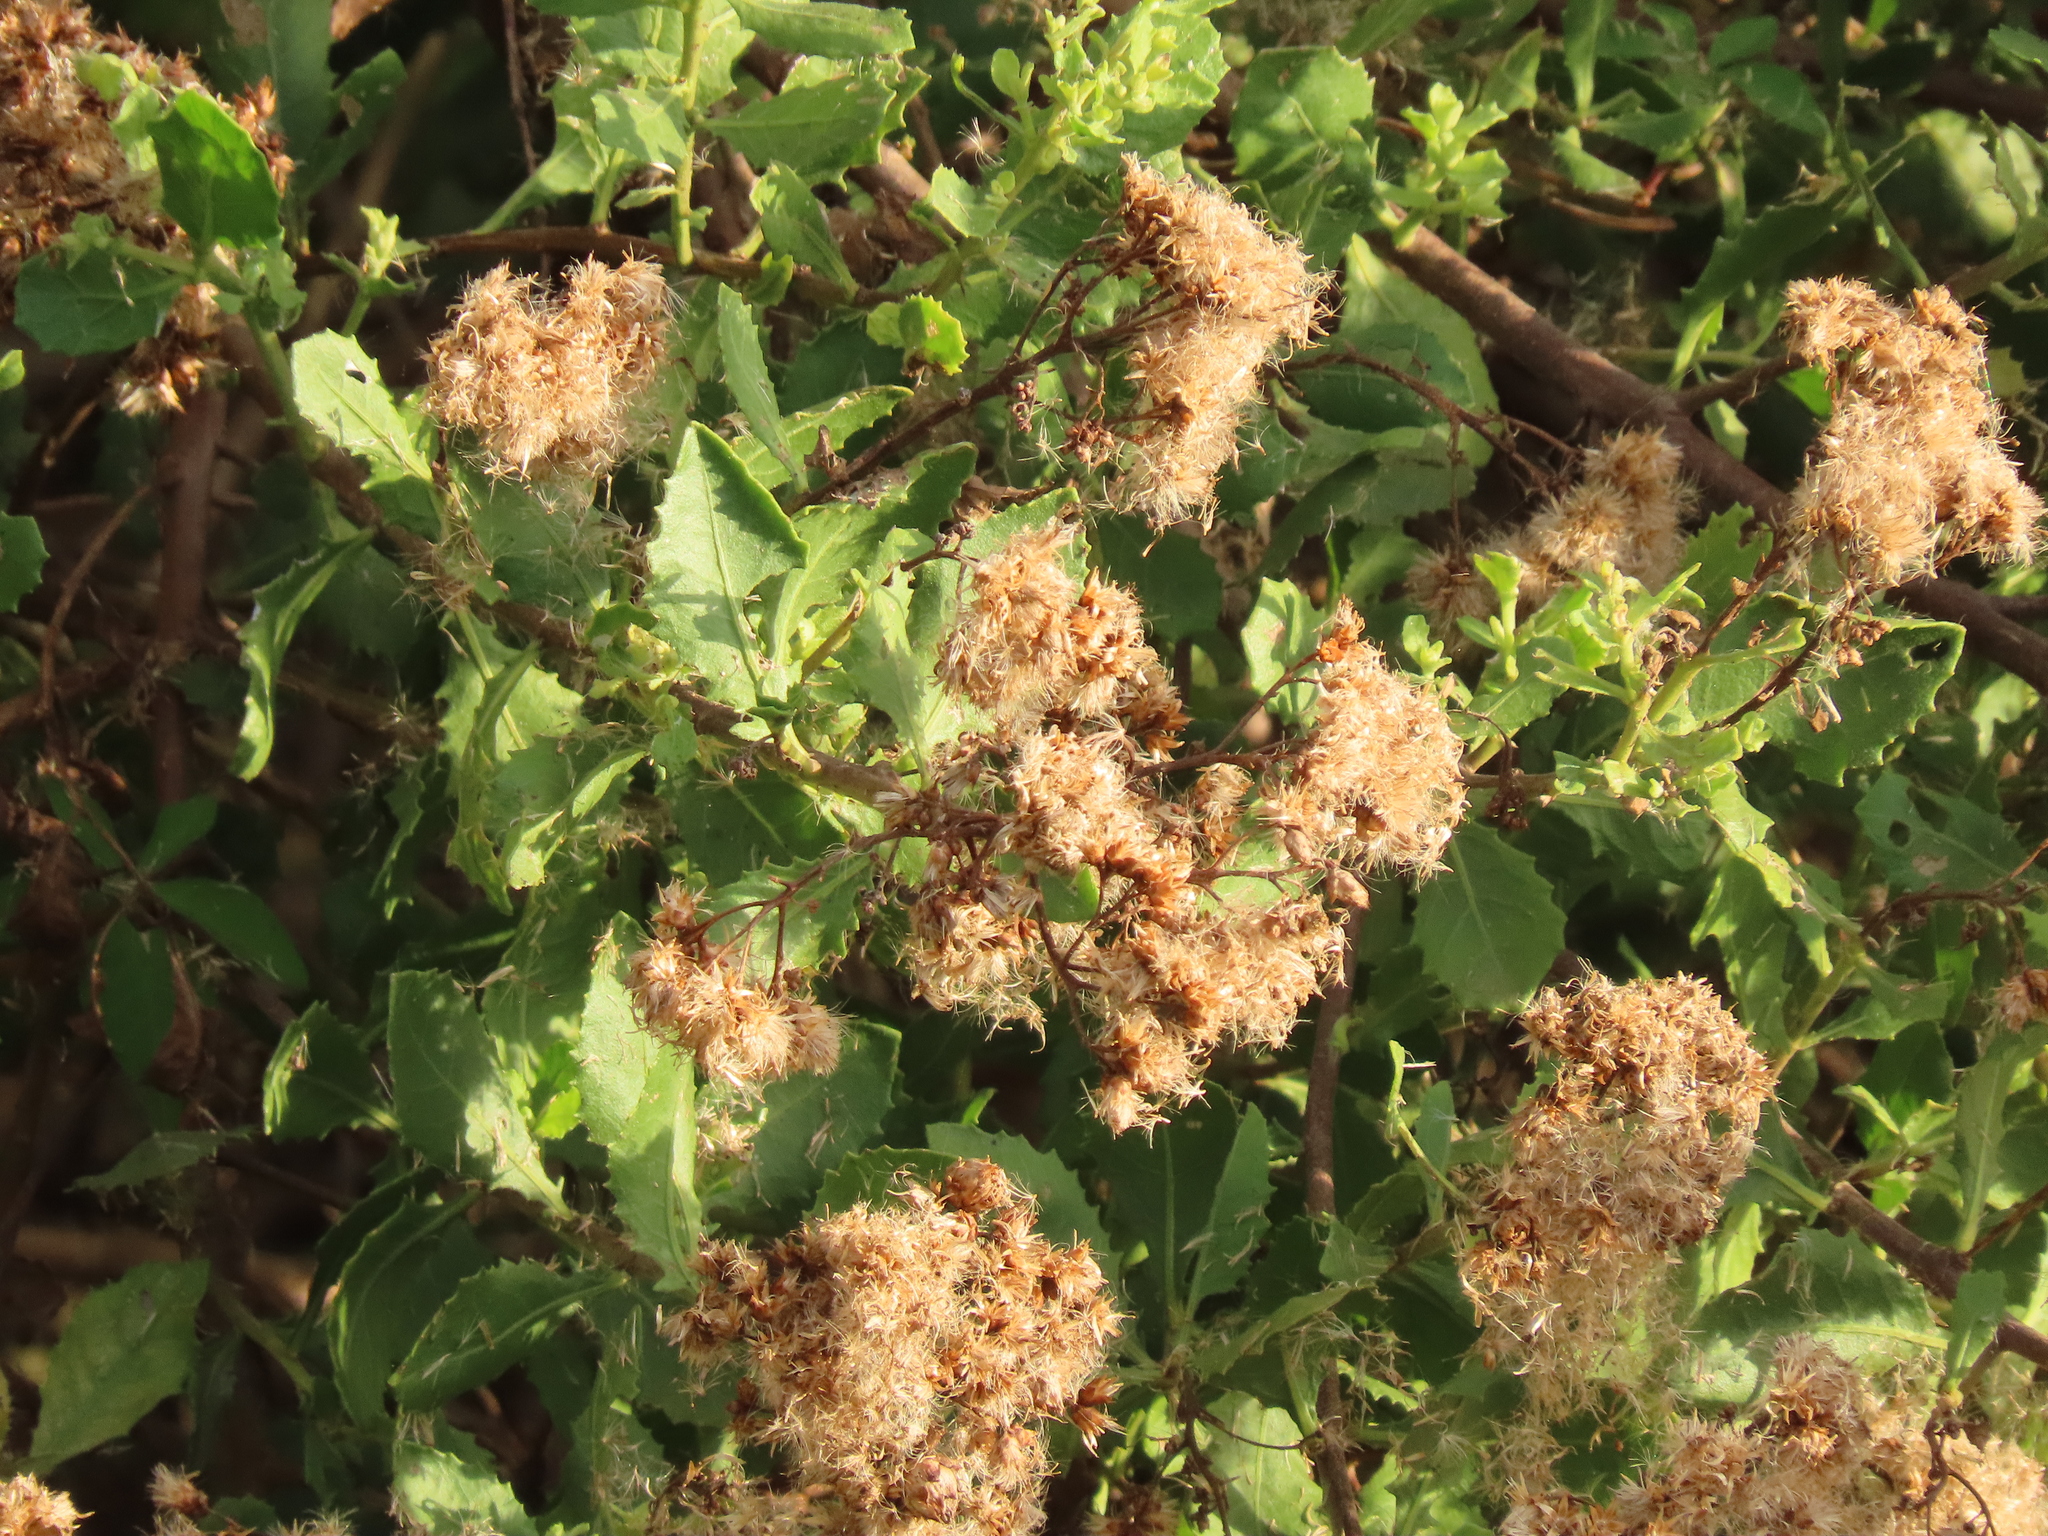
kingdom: Plantae
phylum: Tracheophyta
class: Magnoliopsida
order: Asterales
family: Asteraceae
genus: Pluchea
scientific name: Pluchea indica
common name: Indian fleabane
